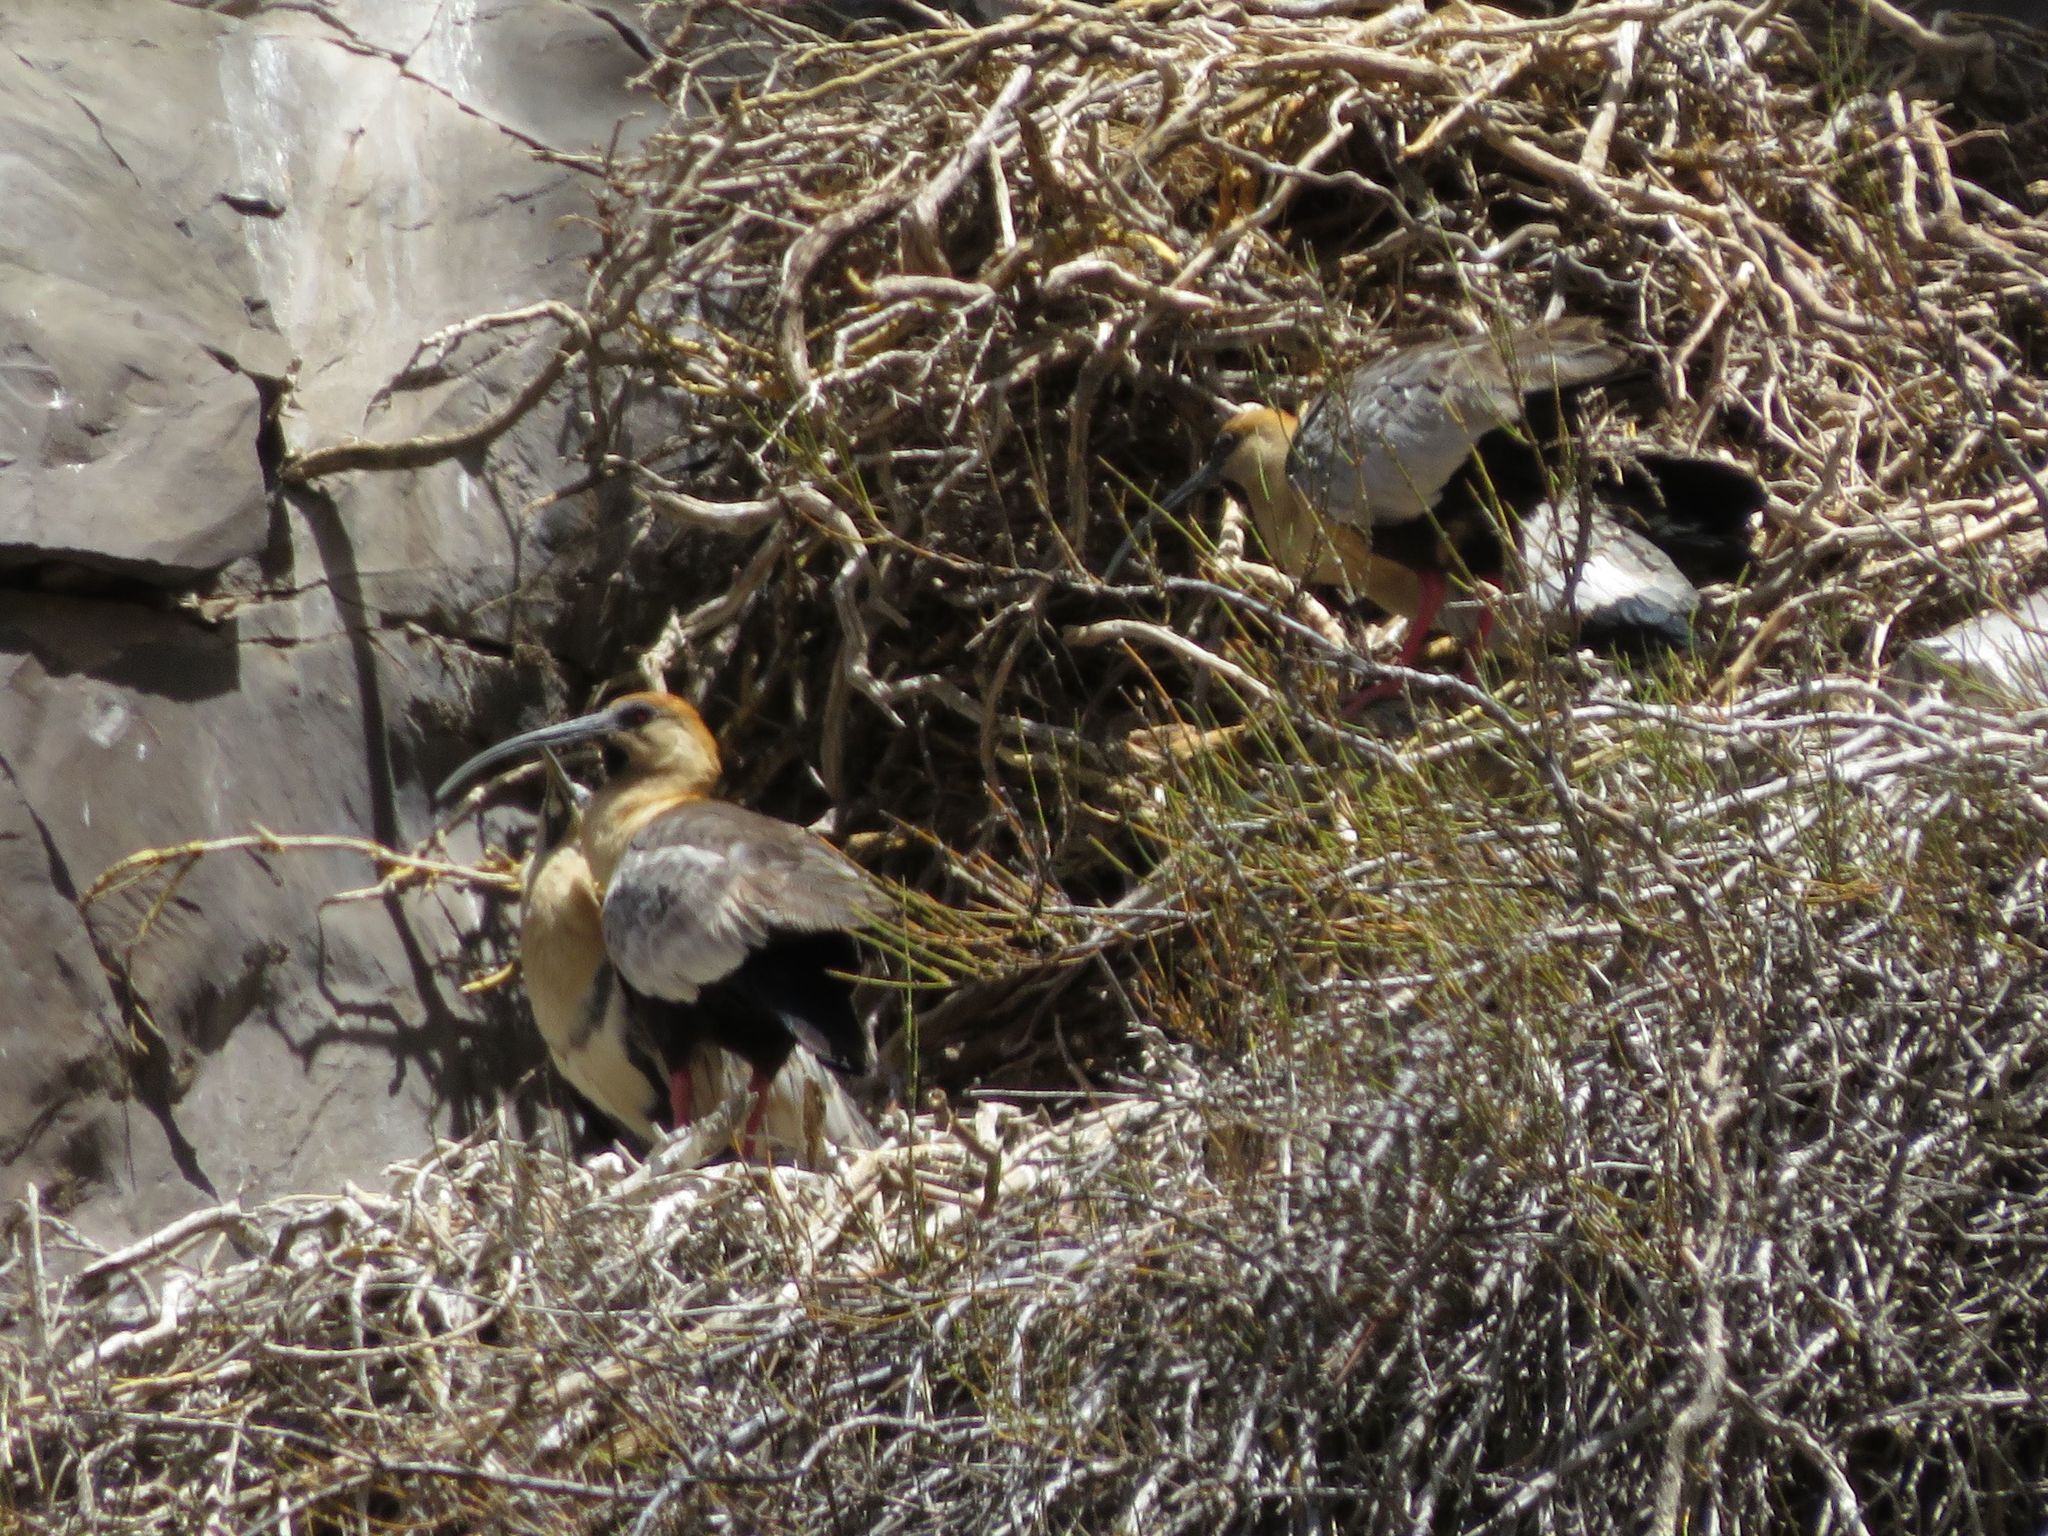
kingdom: Animalia
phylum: Chordata
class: Aves
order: Pelecaniformes
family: Threskiornithidae
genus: Theristicus
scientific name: Theristicus melanopis
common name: Black-faced ibis
